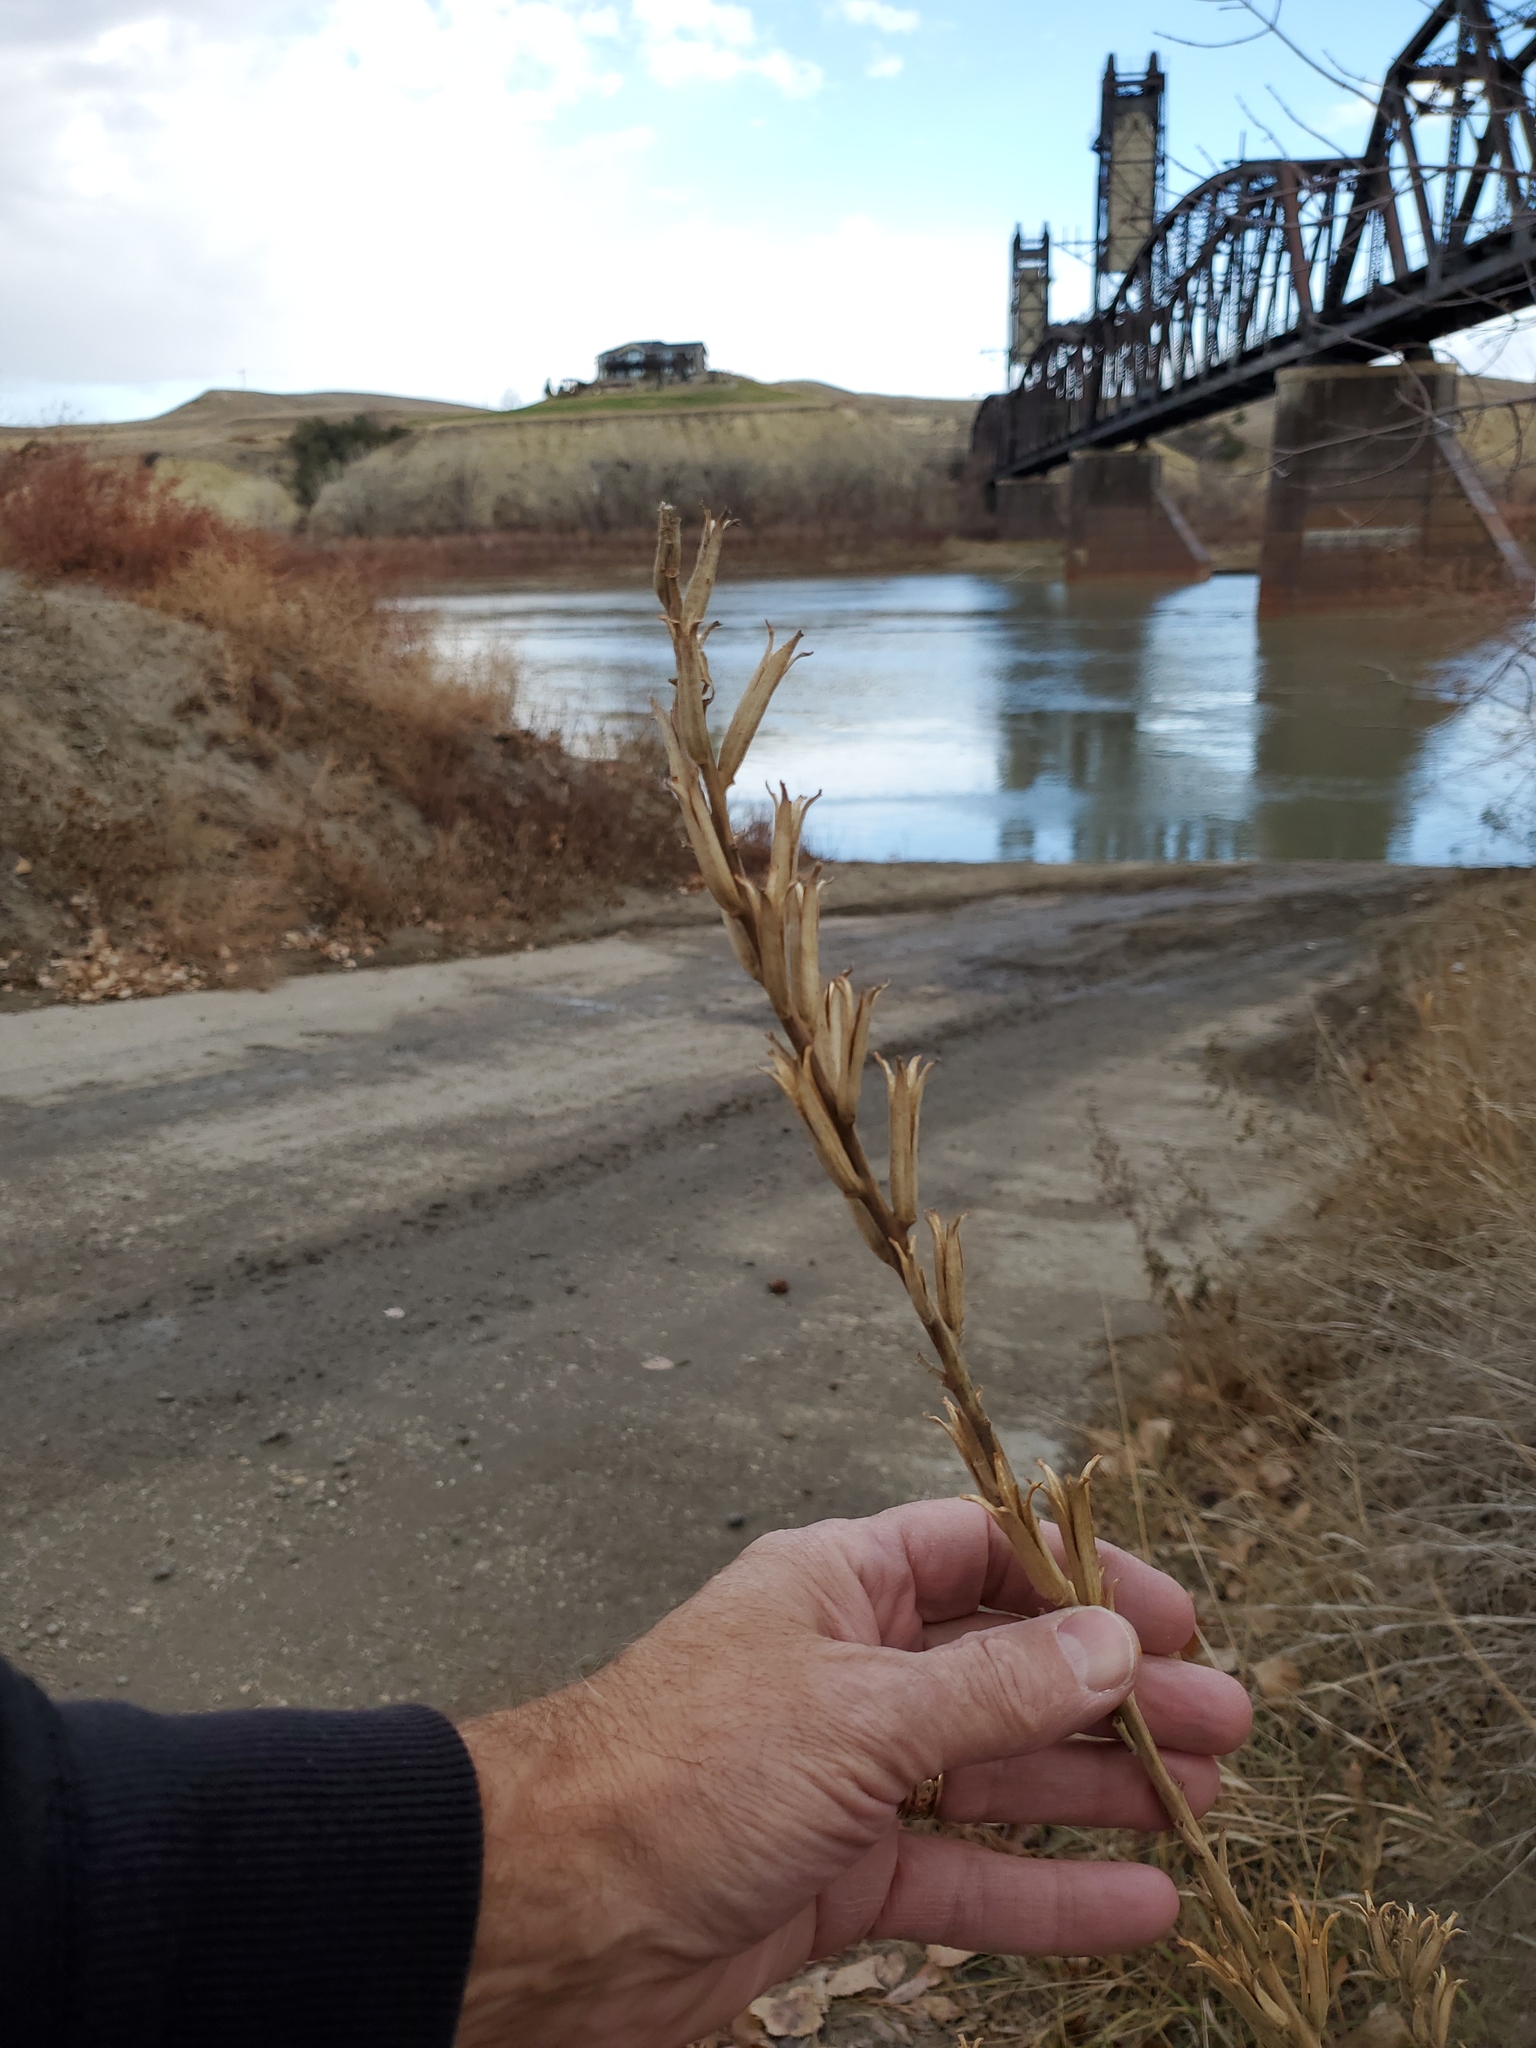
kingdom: Plantae
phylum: Tracheophyta
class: Magnoliopsida
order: Myrtales
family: Onagraceae
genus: Oenothera
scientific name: Oenothera biennis
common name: Common evening-primrose
